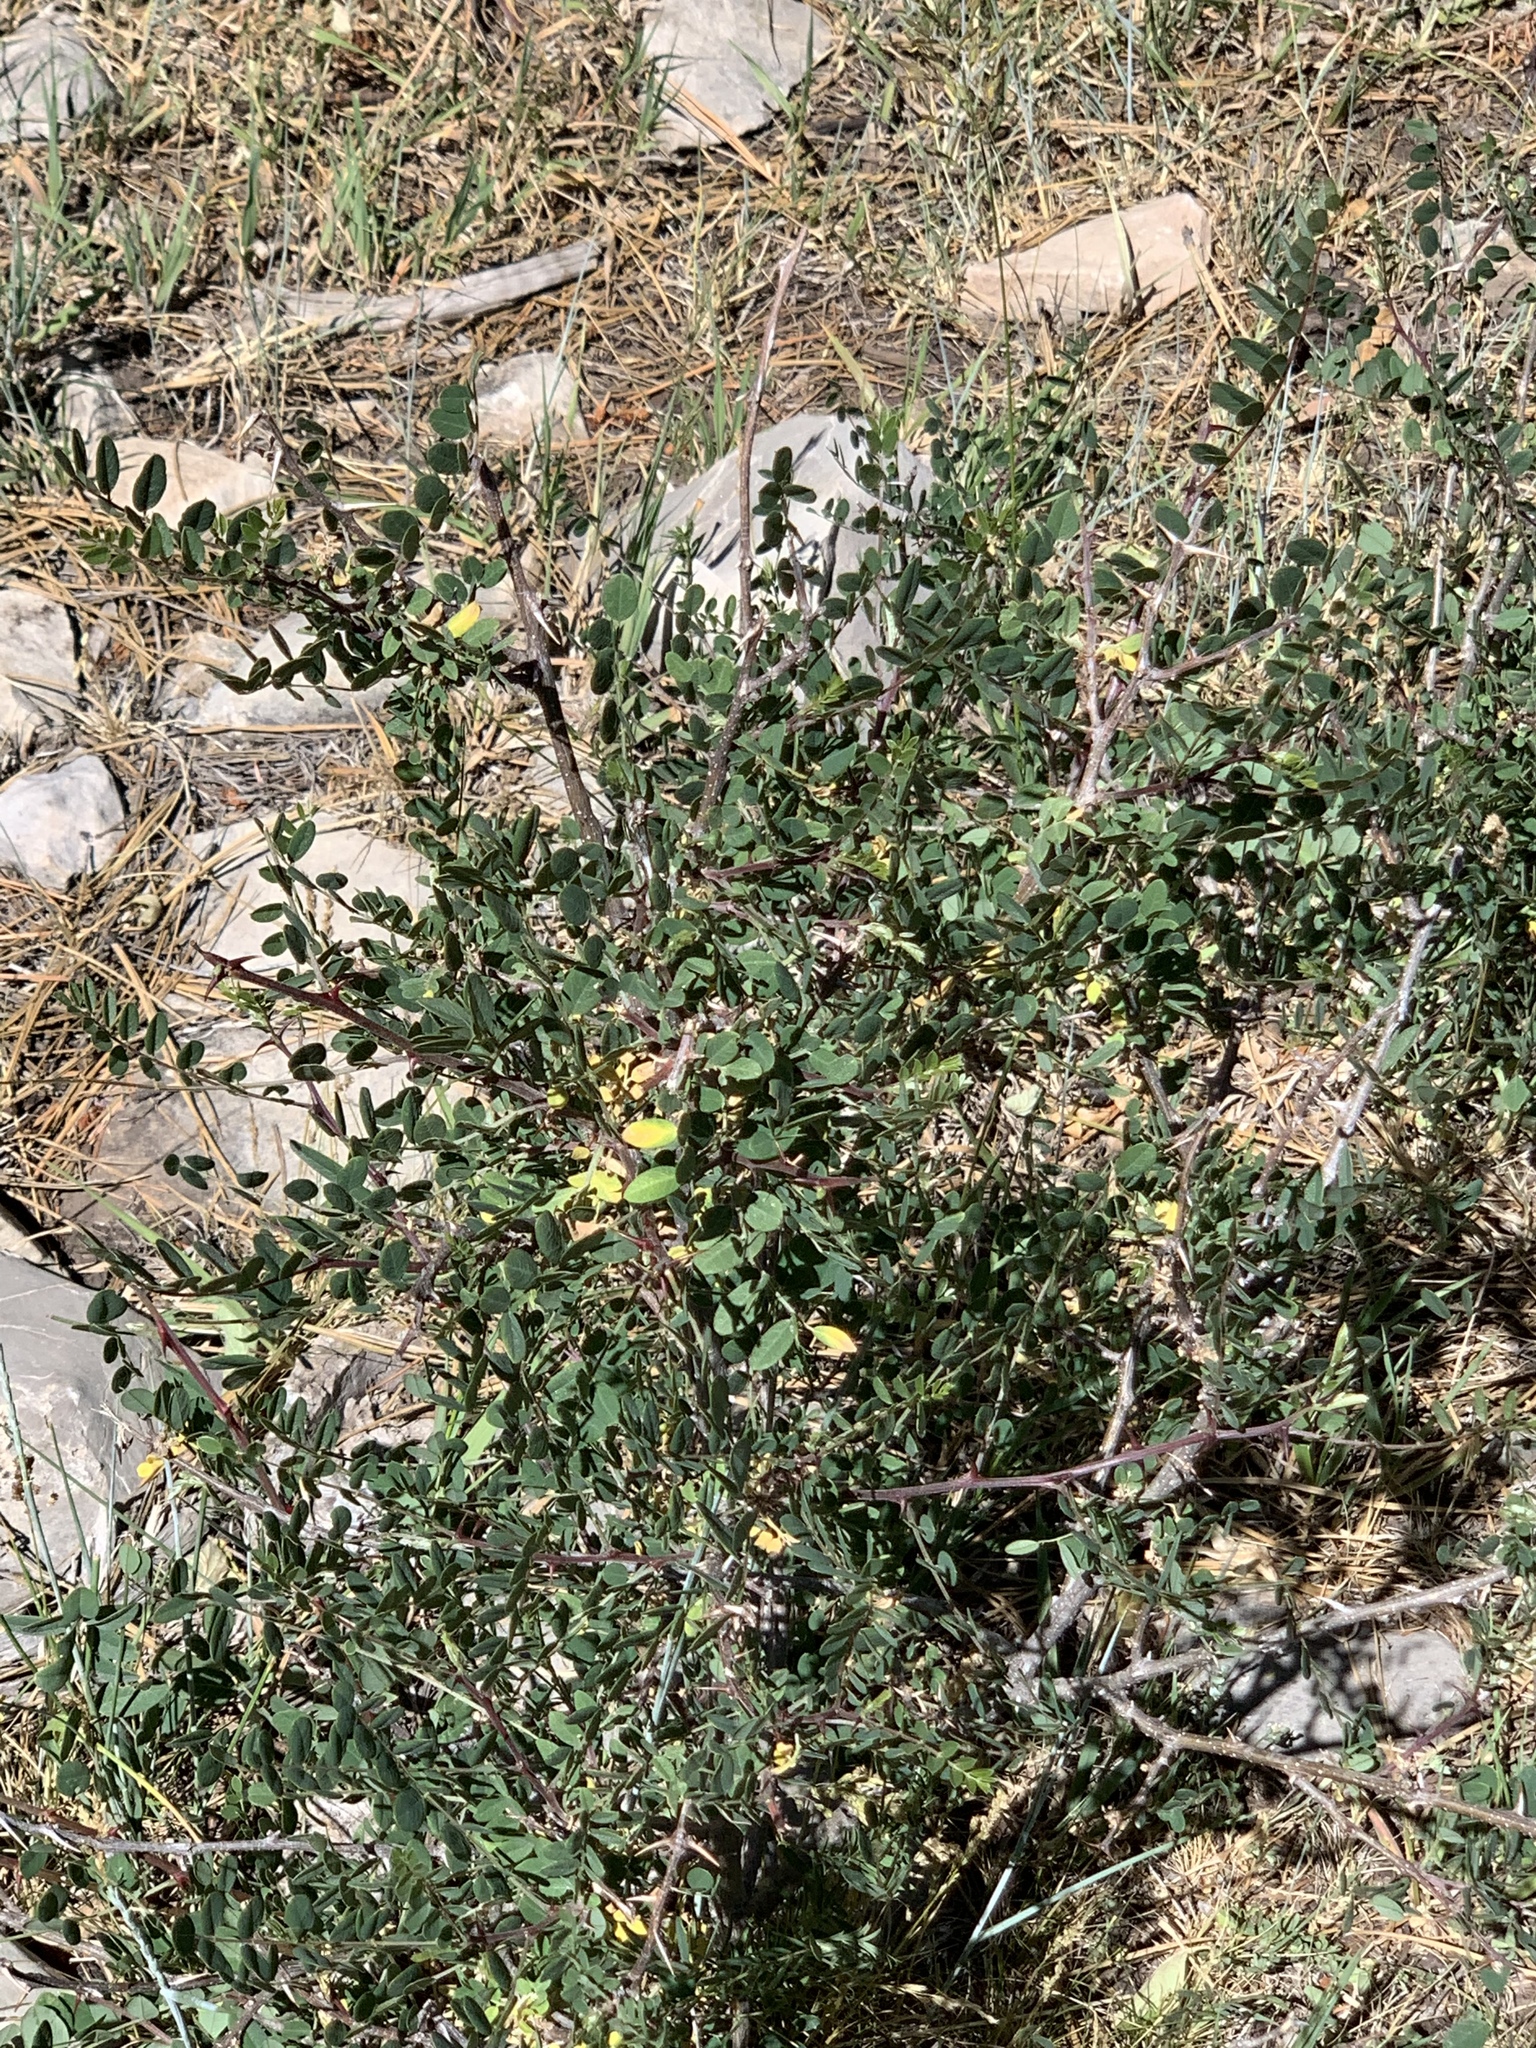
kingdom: Plantae
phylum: Tracheophyta
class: Magnoliopsida
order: Fabales
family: Fabaceae
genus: Robinia
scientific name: Robinia neomexicana
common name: New mexico locust
